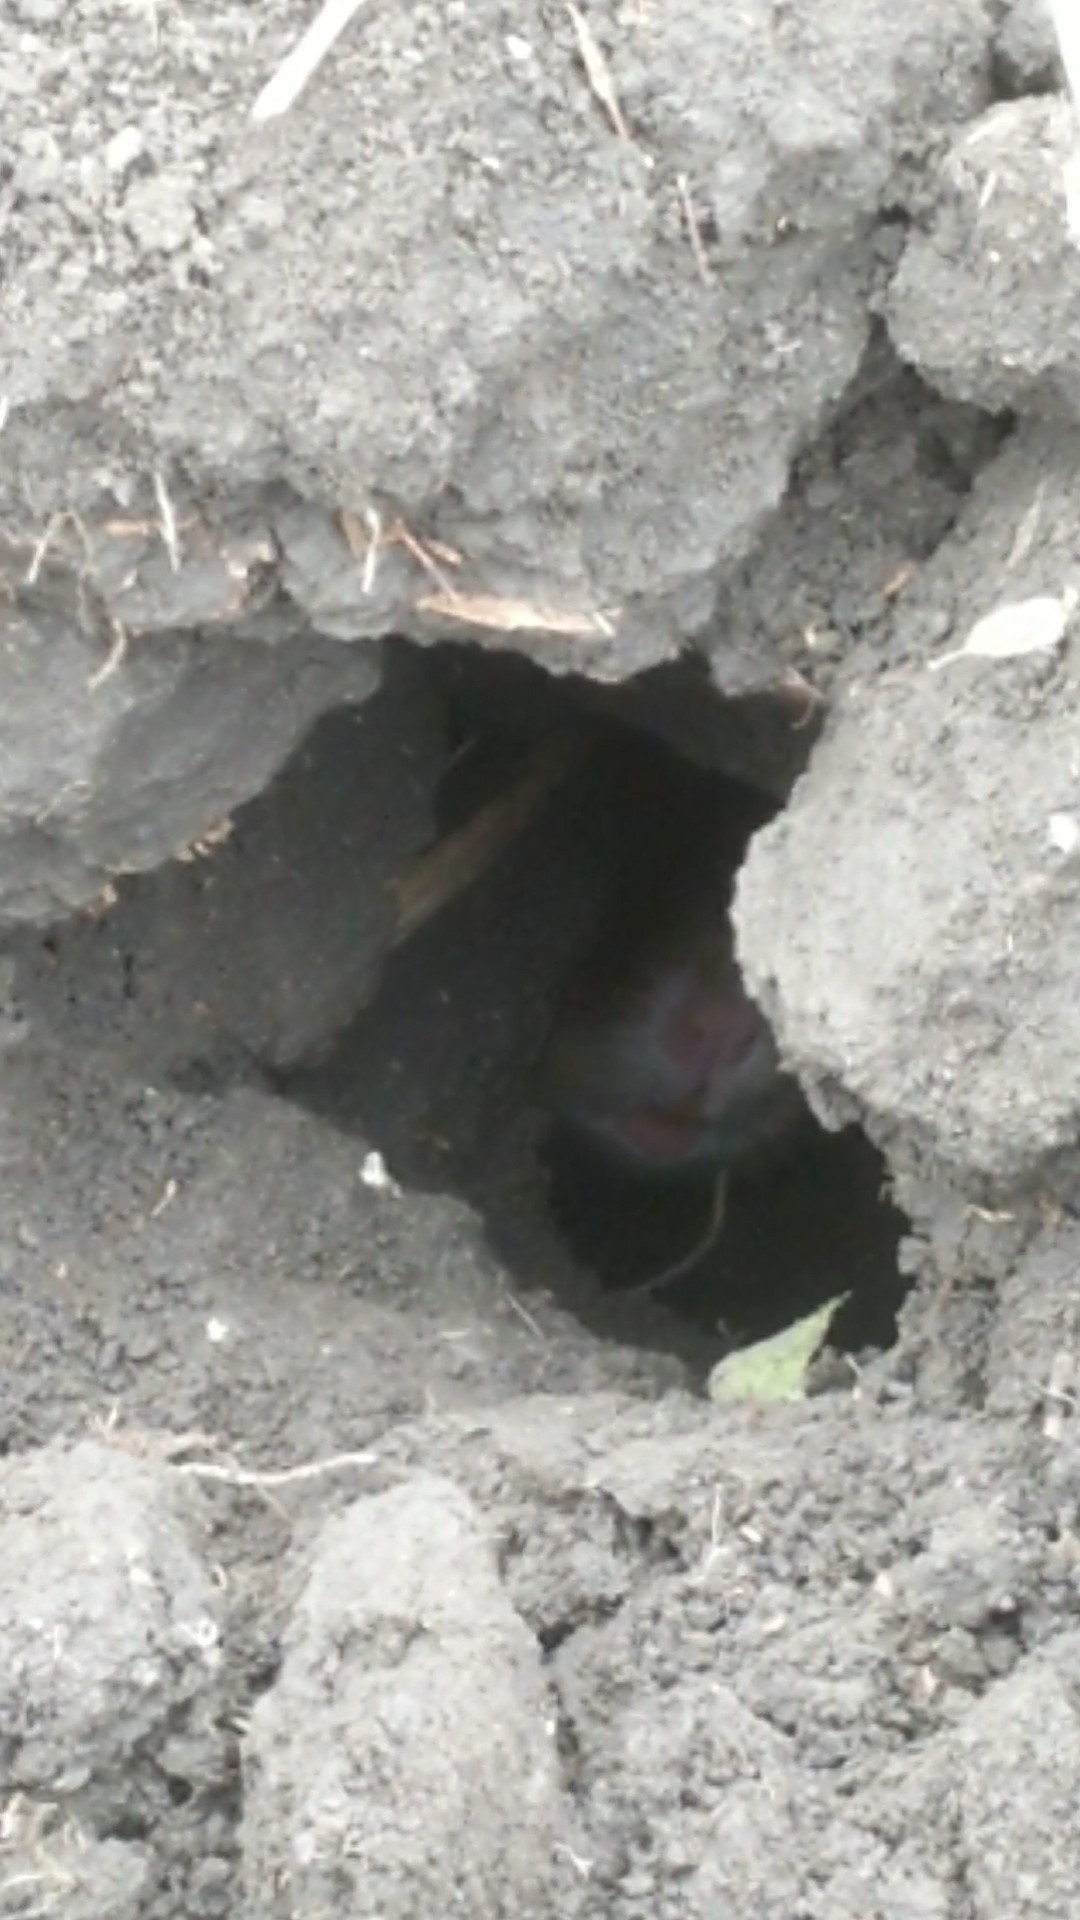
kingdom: Animalia
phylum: Chordata
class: Mammalia
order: Rodentia
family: Cricetidae
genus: Cricetus
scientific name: Cricetus cricetus
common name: Common hamster
